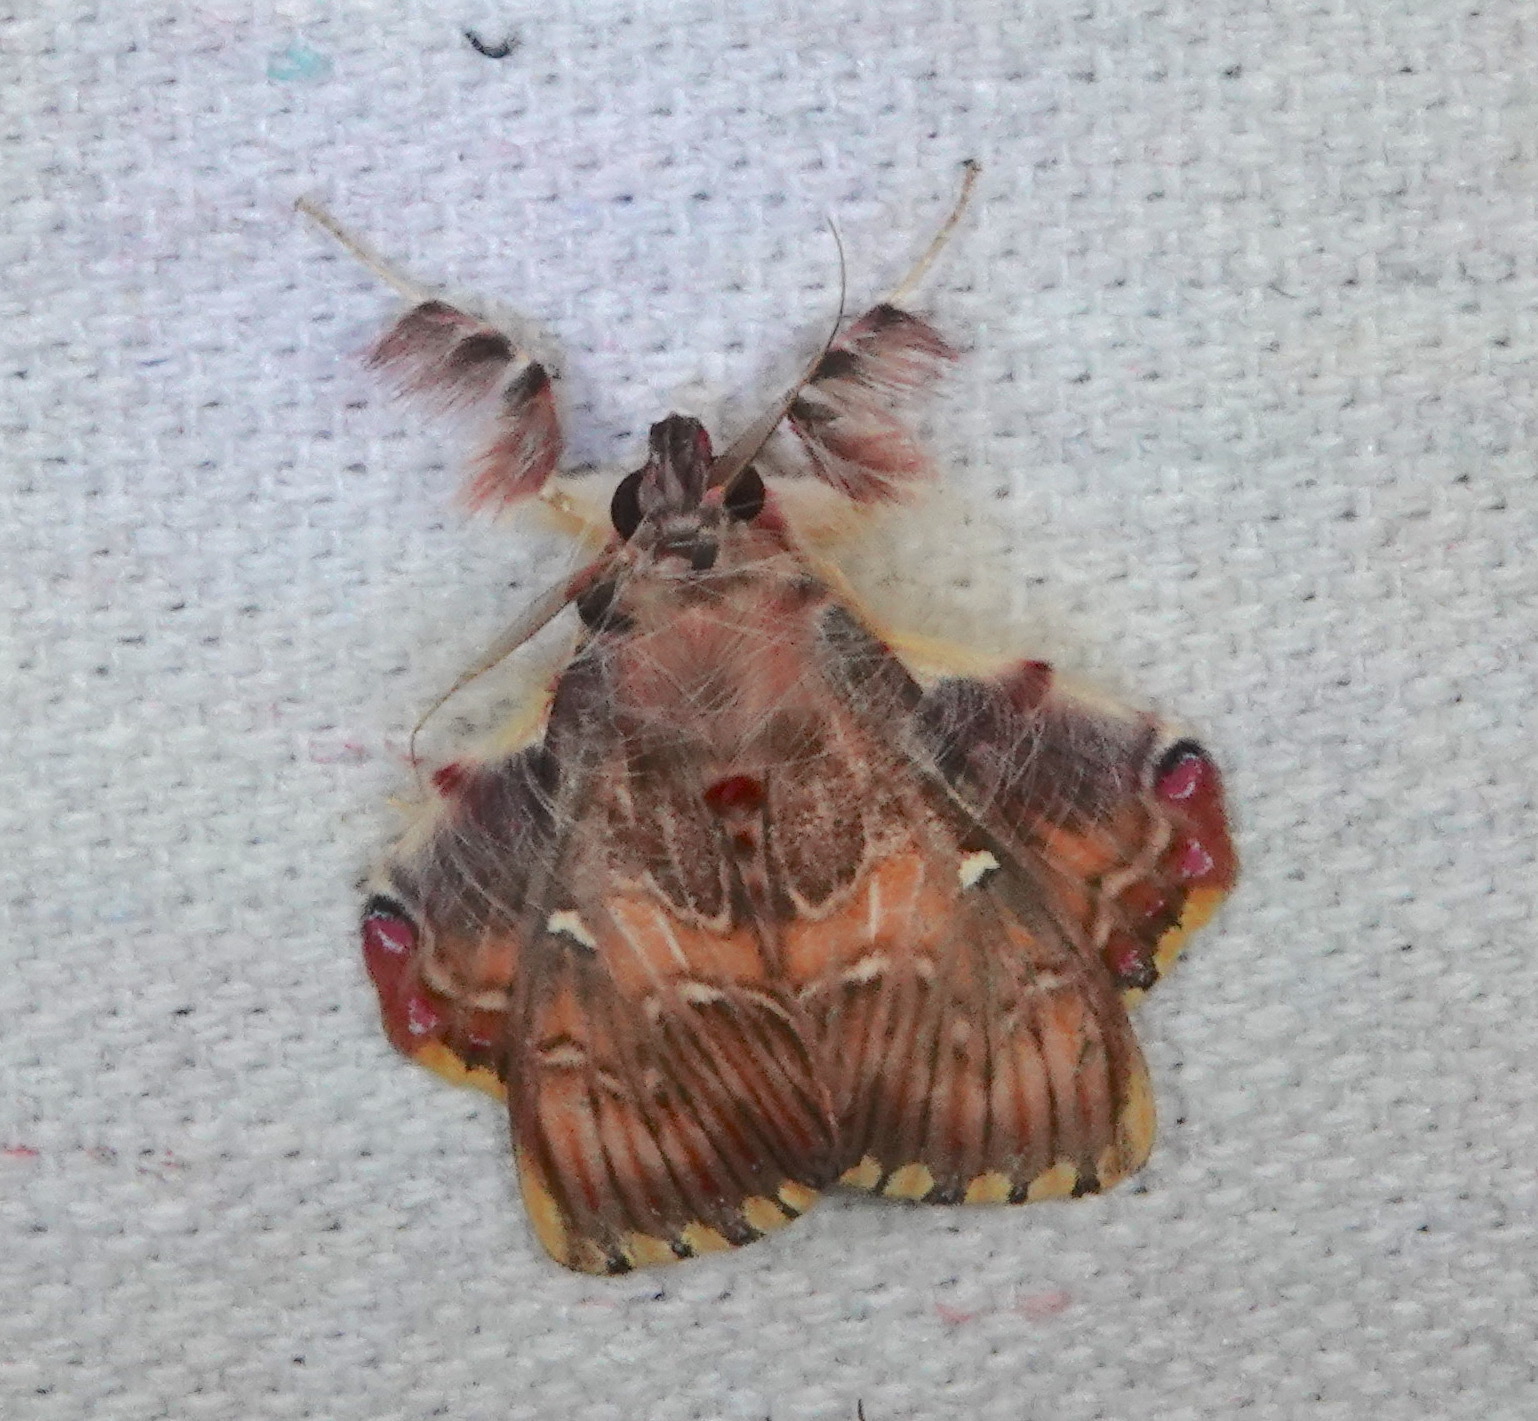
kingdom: Animalia
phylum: Arthropoda
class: Insecta
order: Lepidoptera
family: Erebidae
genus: Sosxetra
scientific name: Sosxetra grata
